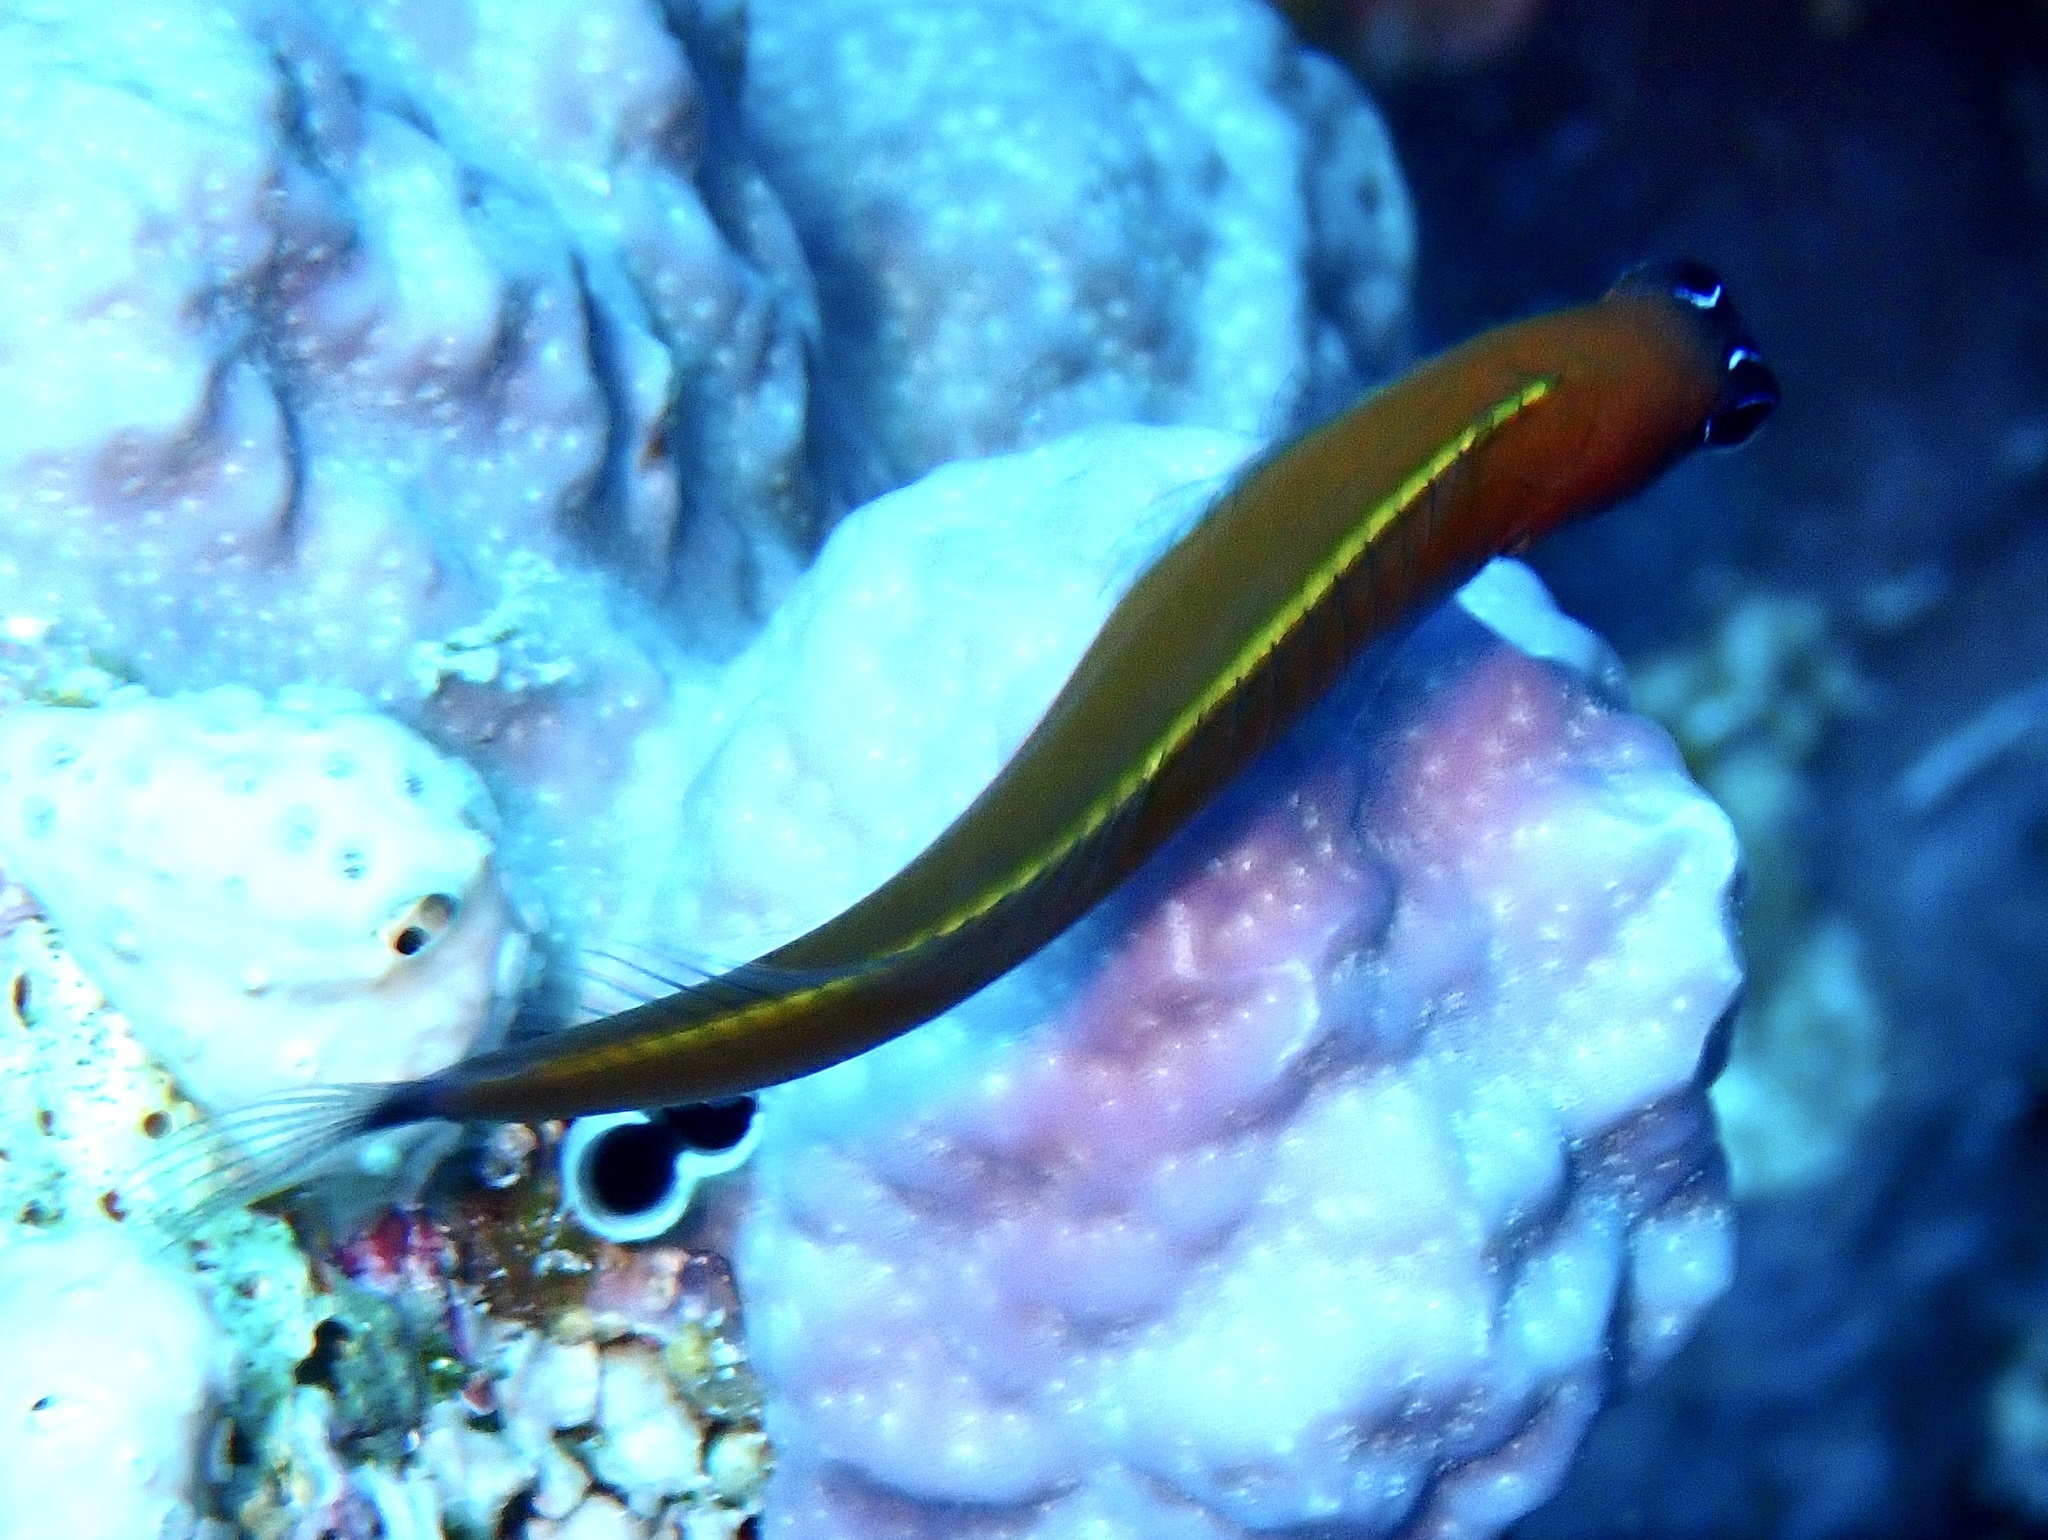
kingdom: Animalia
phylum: Chordata
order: Perciformes
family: Blenniidae
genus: Ecsenius
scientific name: Ecsenius aroni
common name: Aron's blenny
